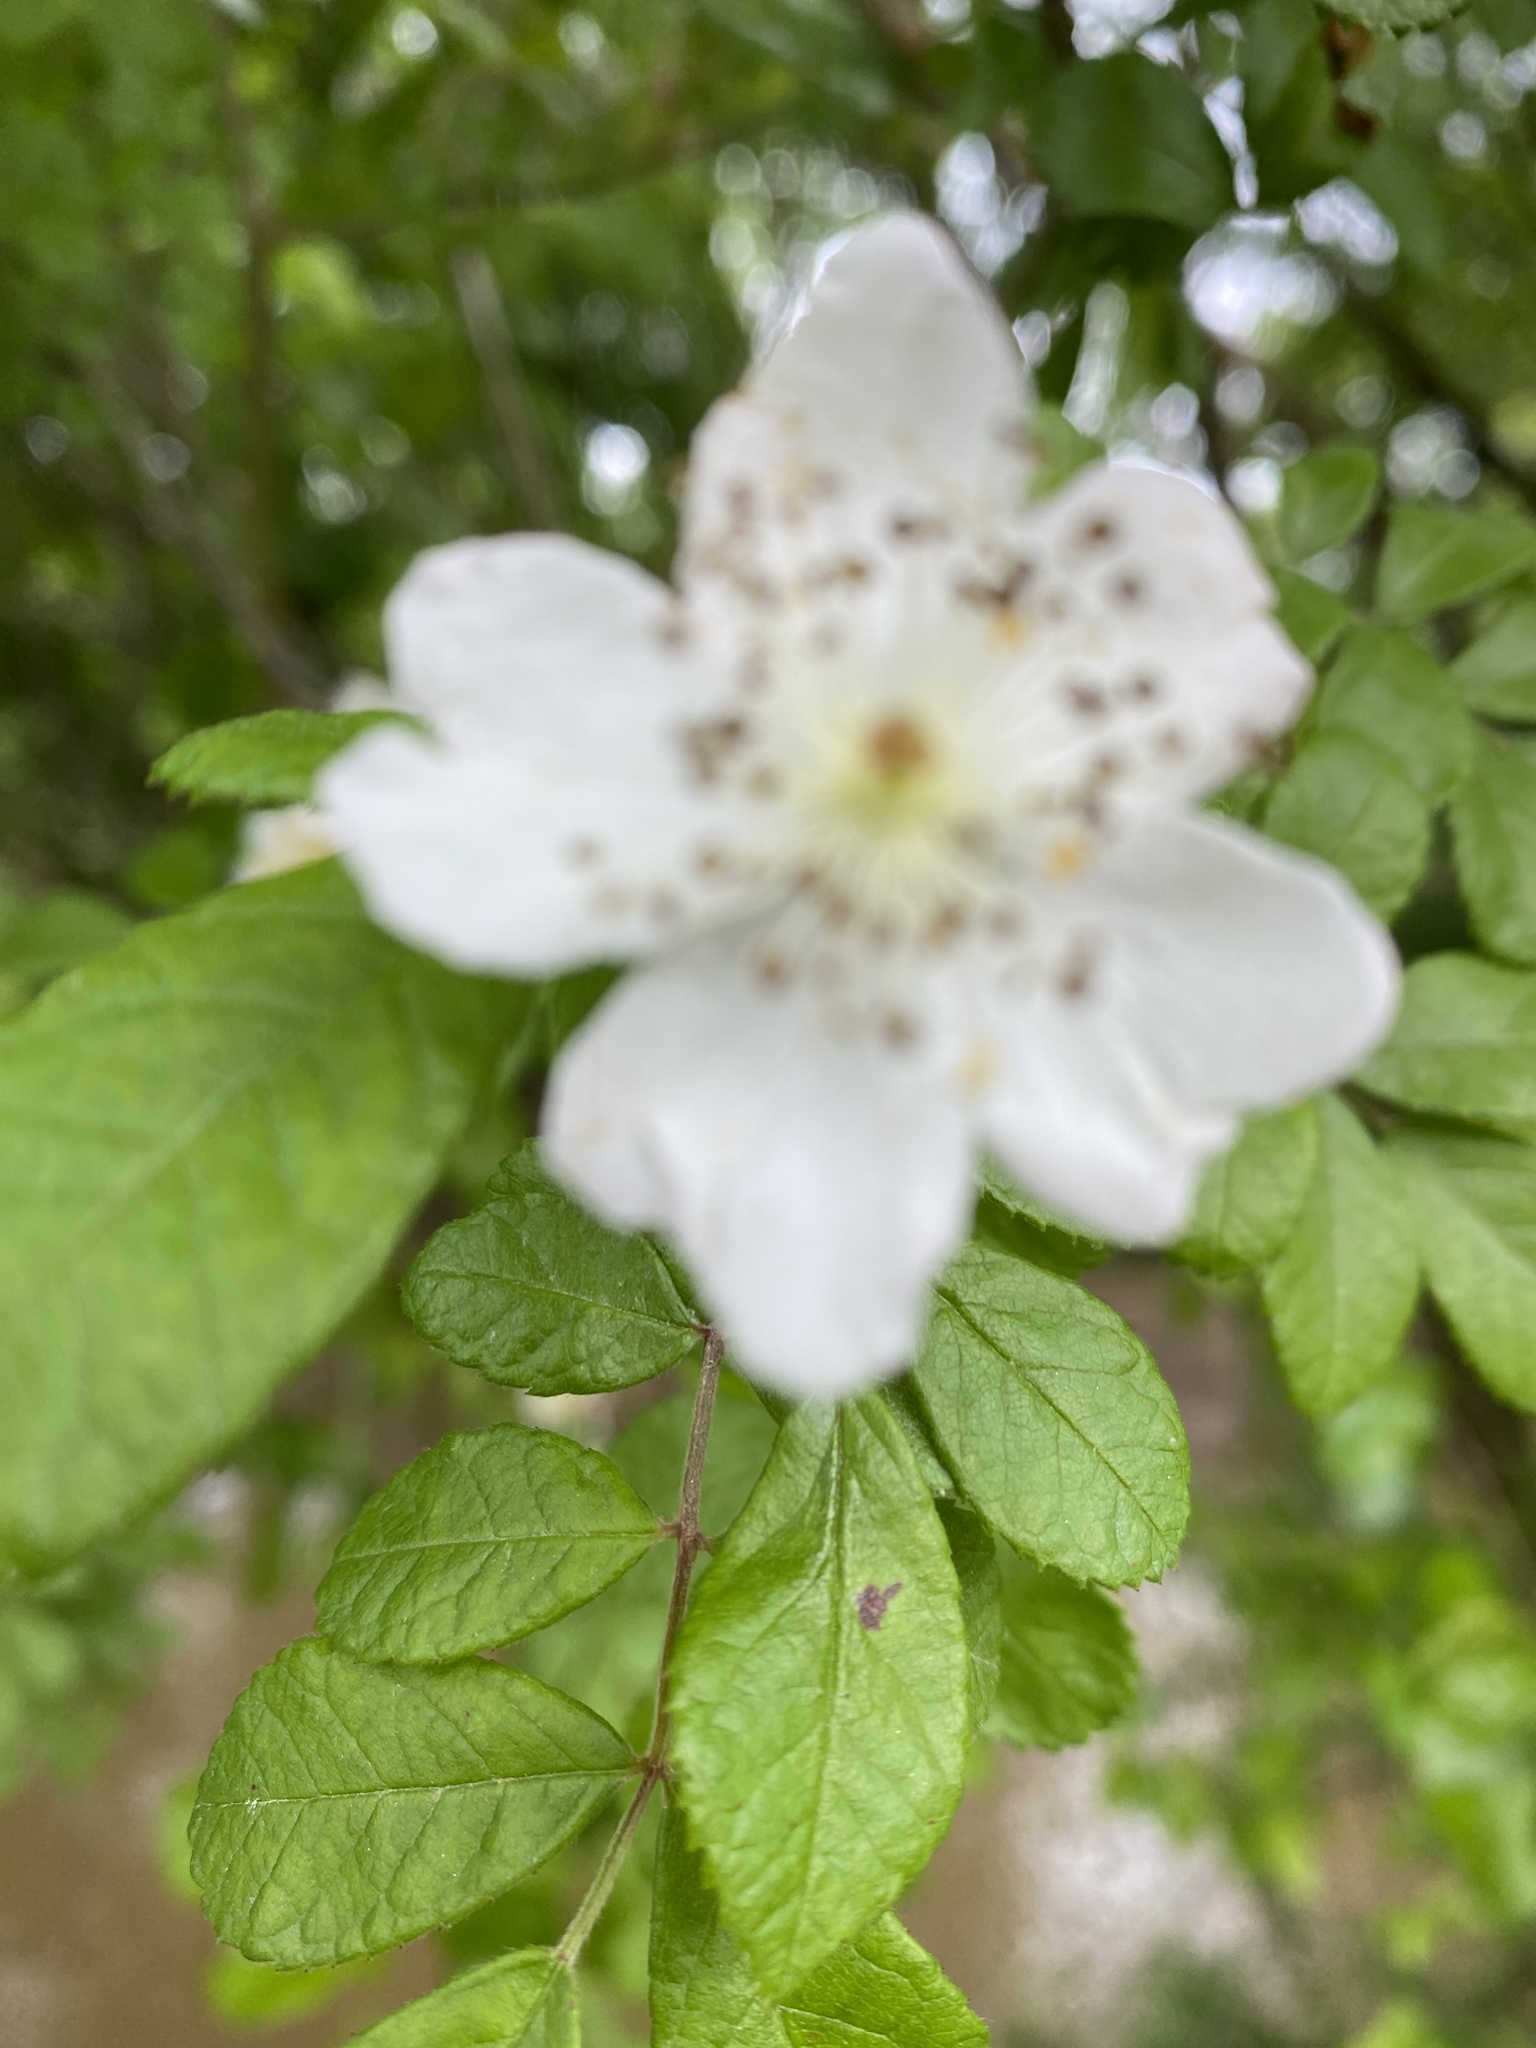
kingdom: Plantae
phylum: Tracheophyta
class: Magnoliopsida
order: Rosales
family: Rosaceae
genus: Rosa
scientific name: Rosa multiflora
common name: Multiflora rose
